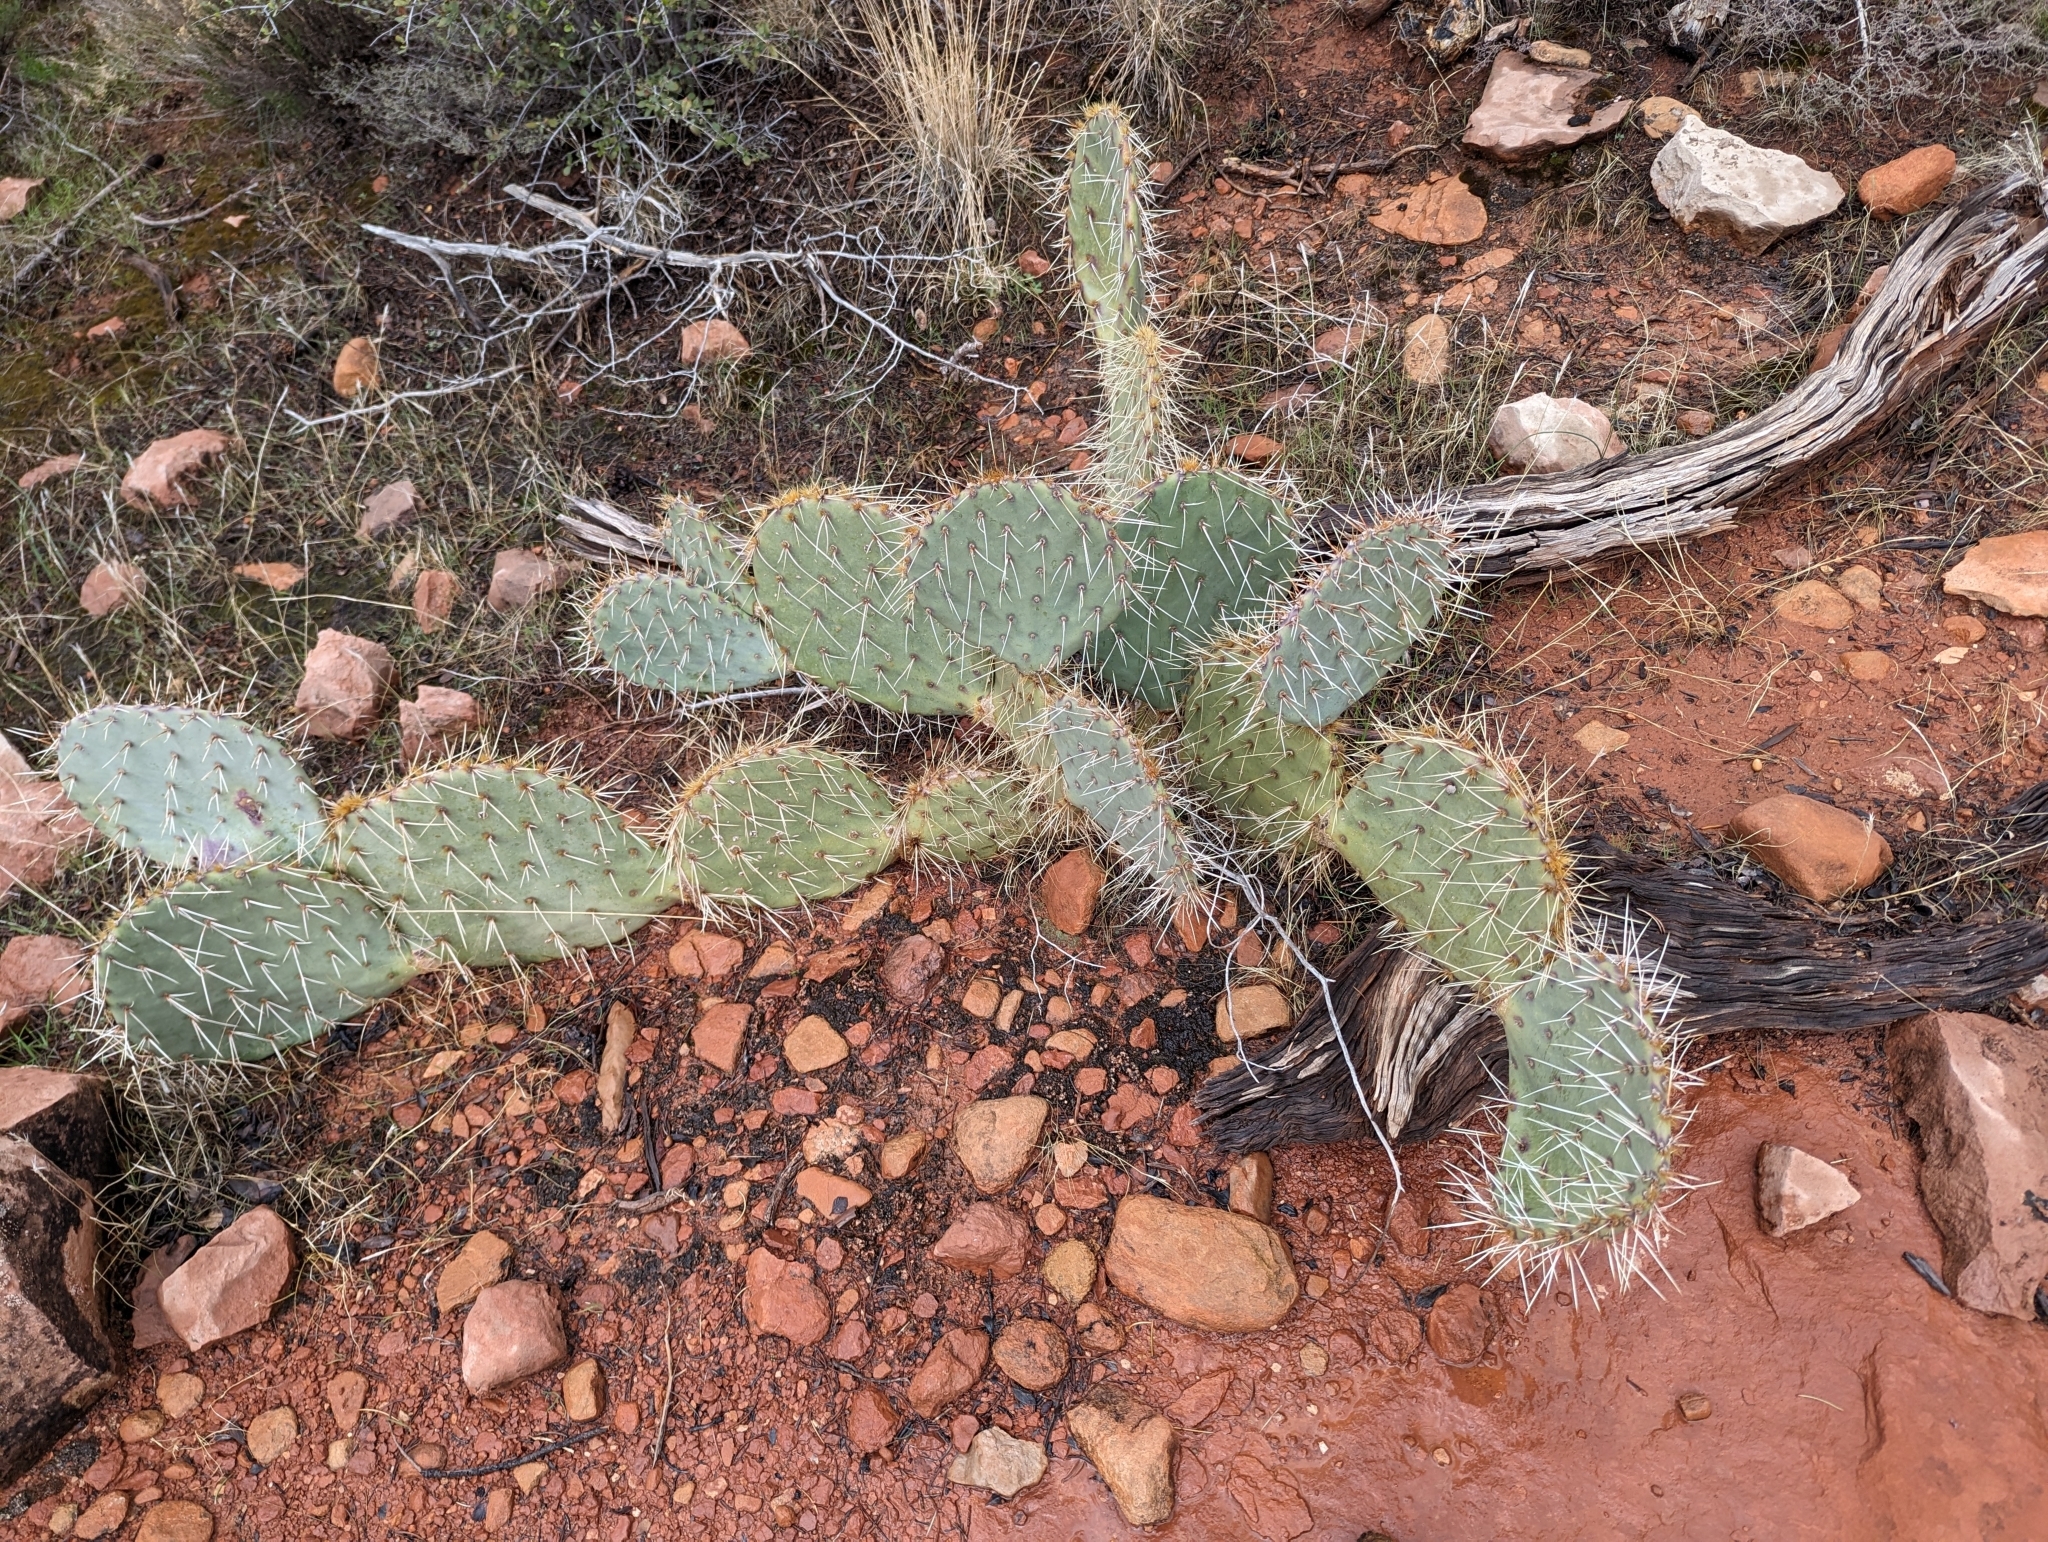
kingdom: Plantae
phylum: Tracheophyta
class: Magnoliopsida
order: Caryophyllales
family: Cactaceae
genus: Opuntia
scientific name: Opuntia engelmannii
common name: Cactus-apple
